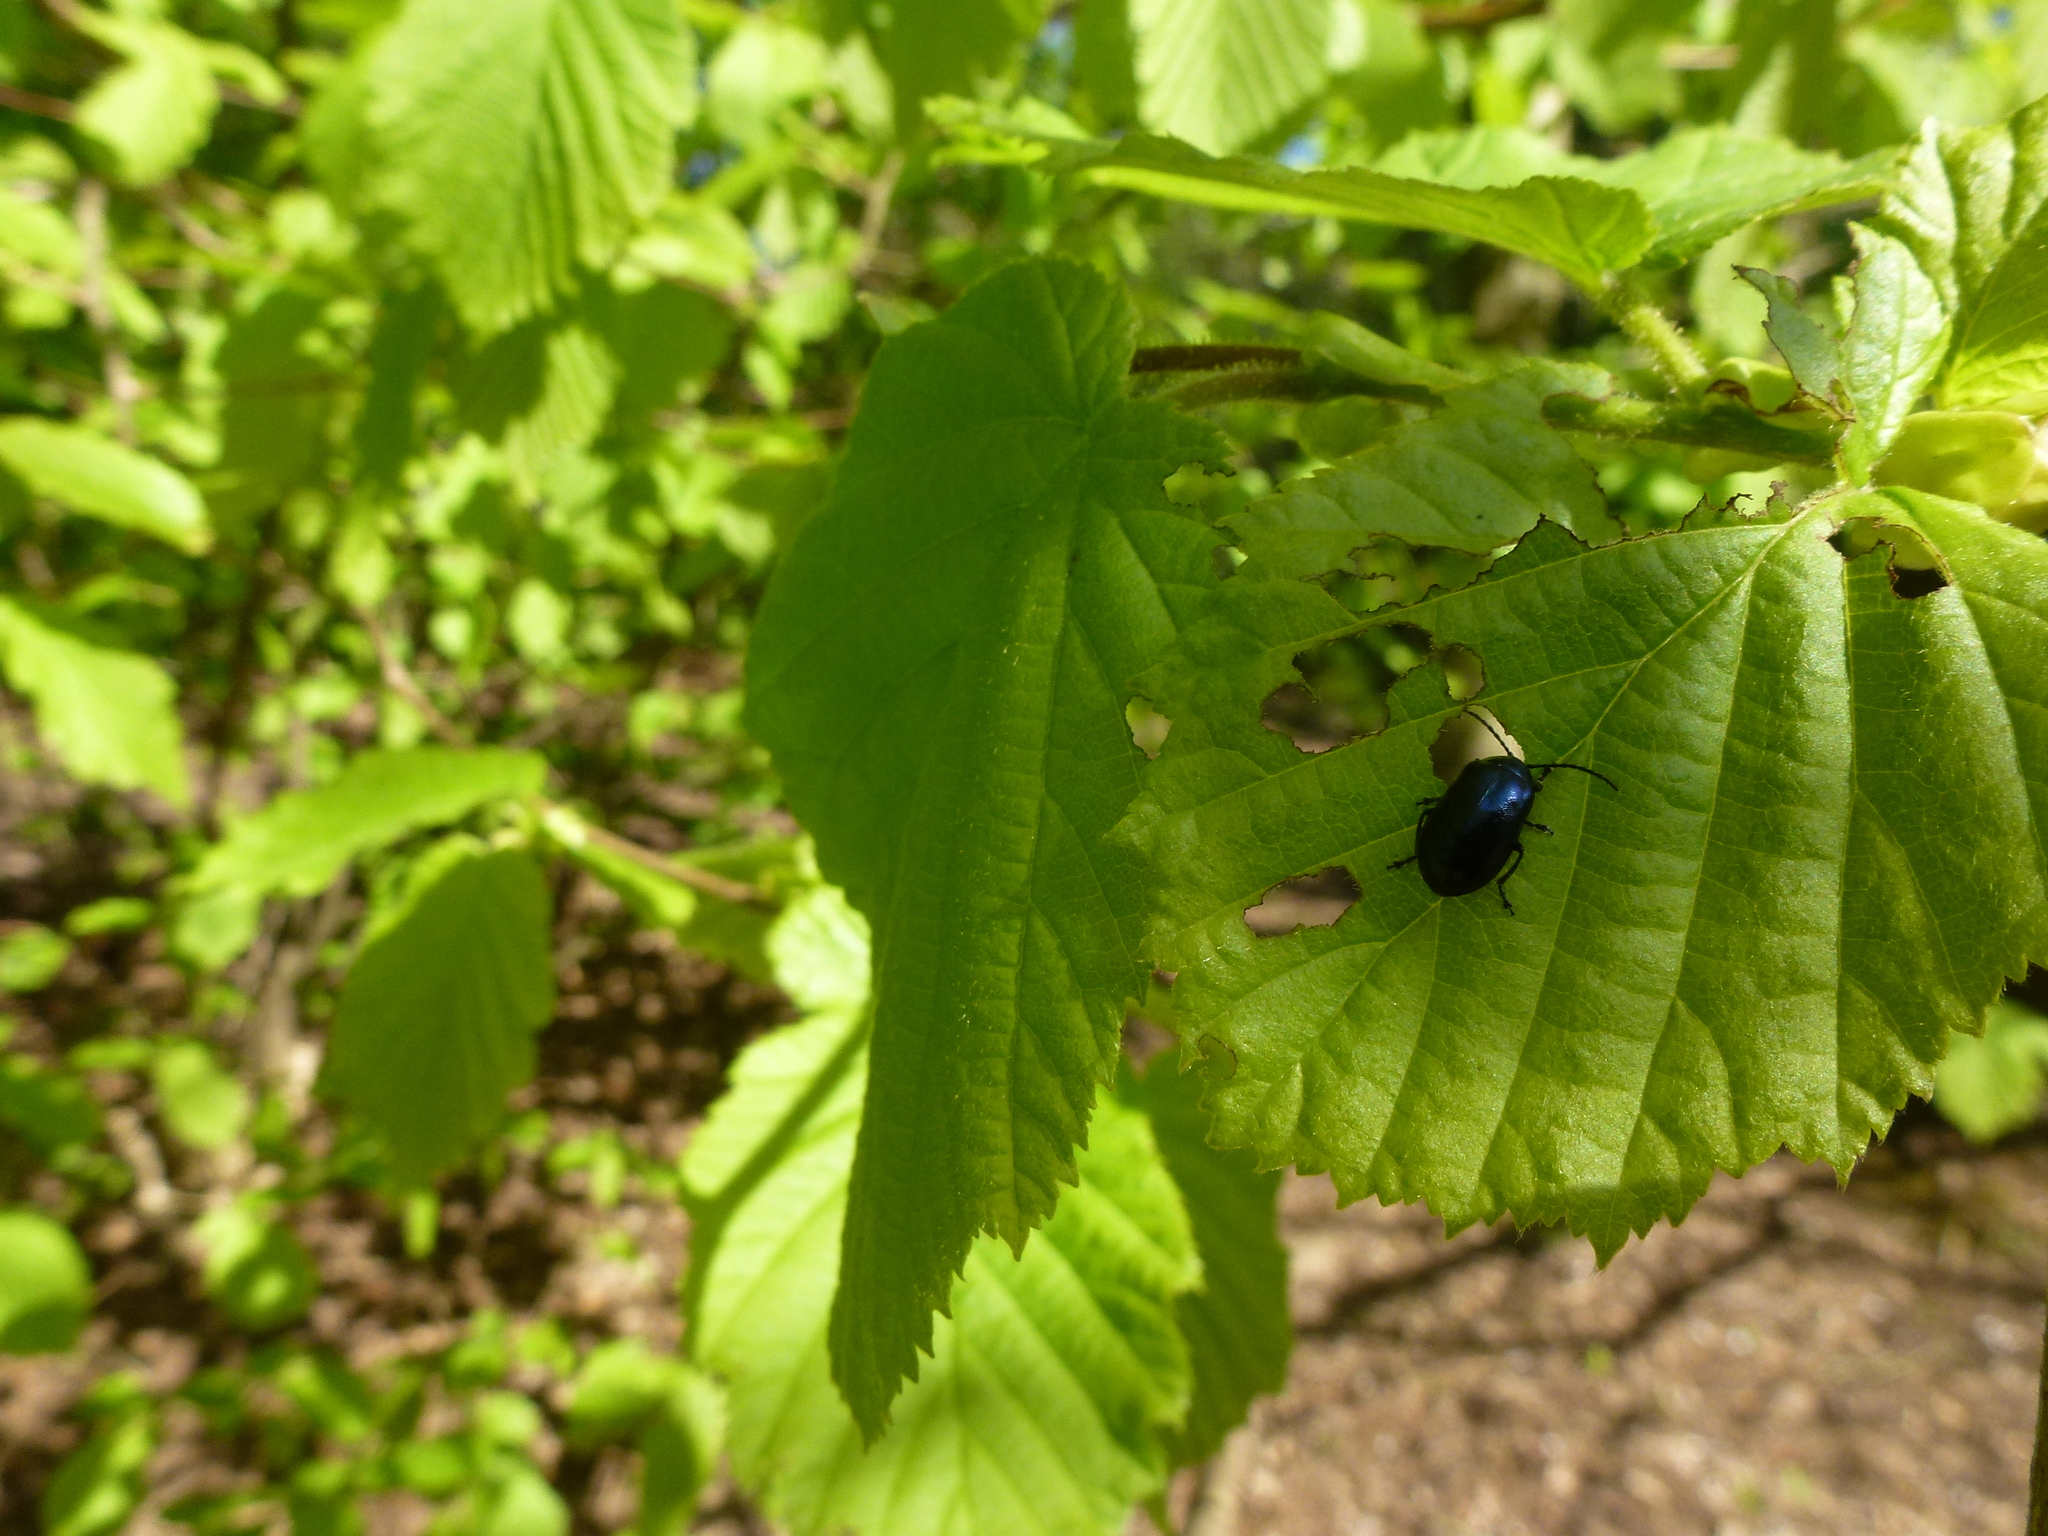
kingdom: Animalia
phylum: Arthropoda
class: Insecta
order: Coleoptera
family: Chrysomelidae
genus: Agelastica
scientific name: Agelastica alni
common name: Alder leaf beetle
